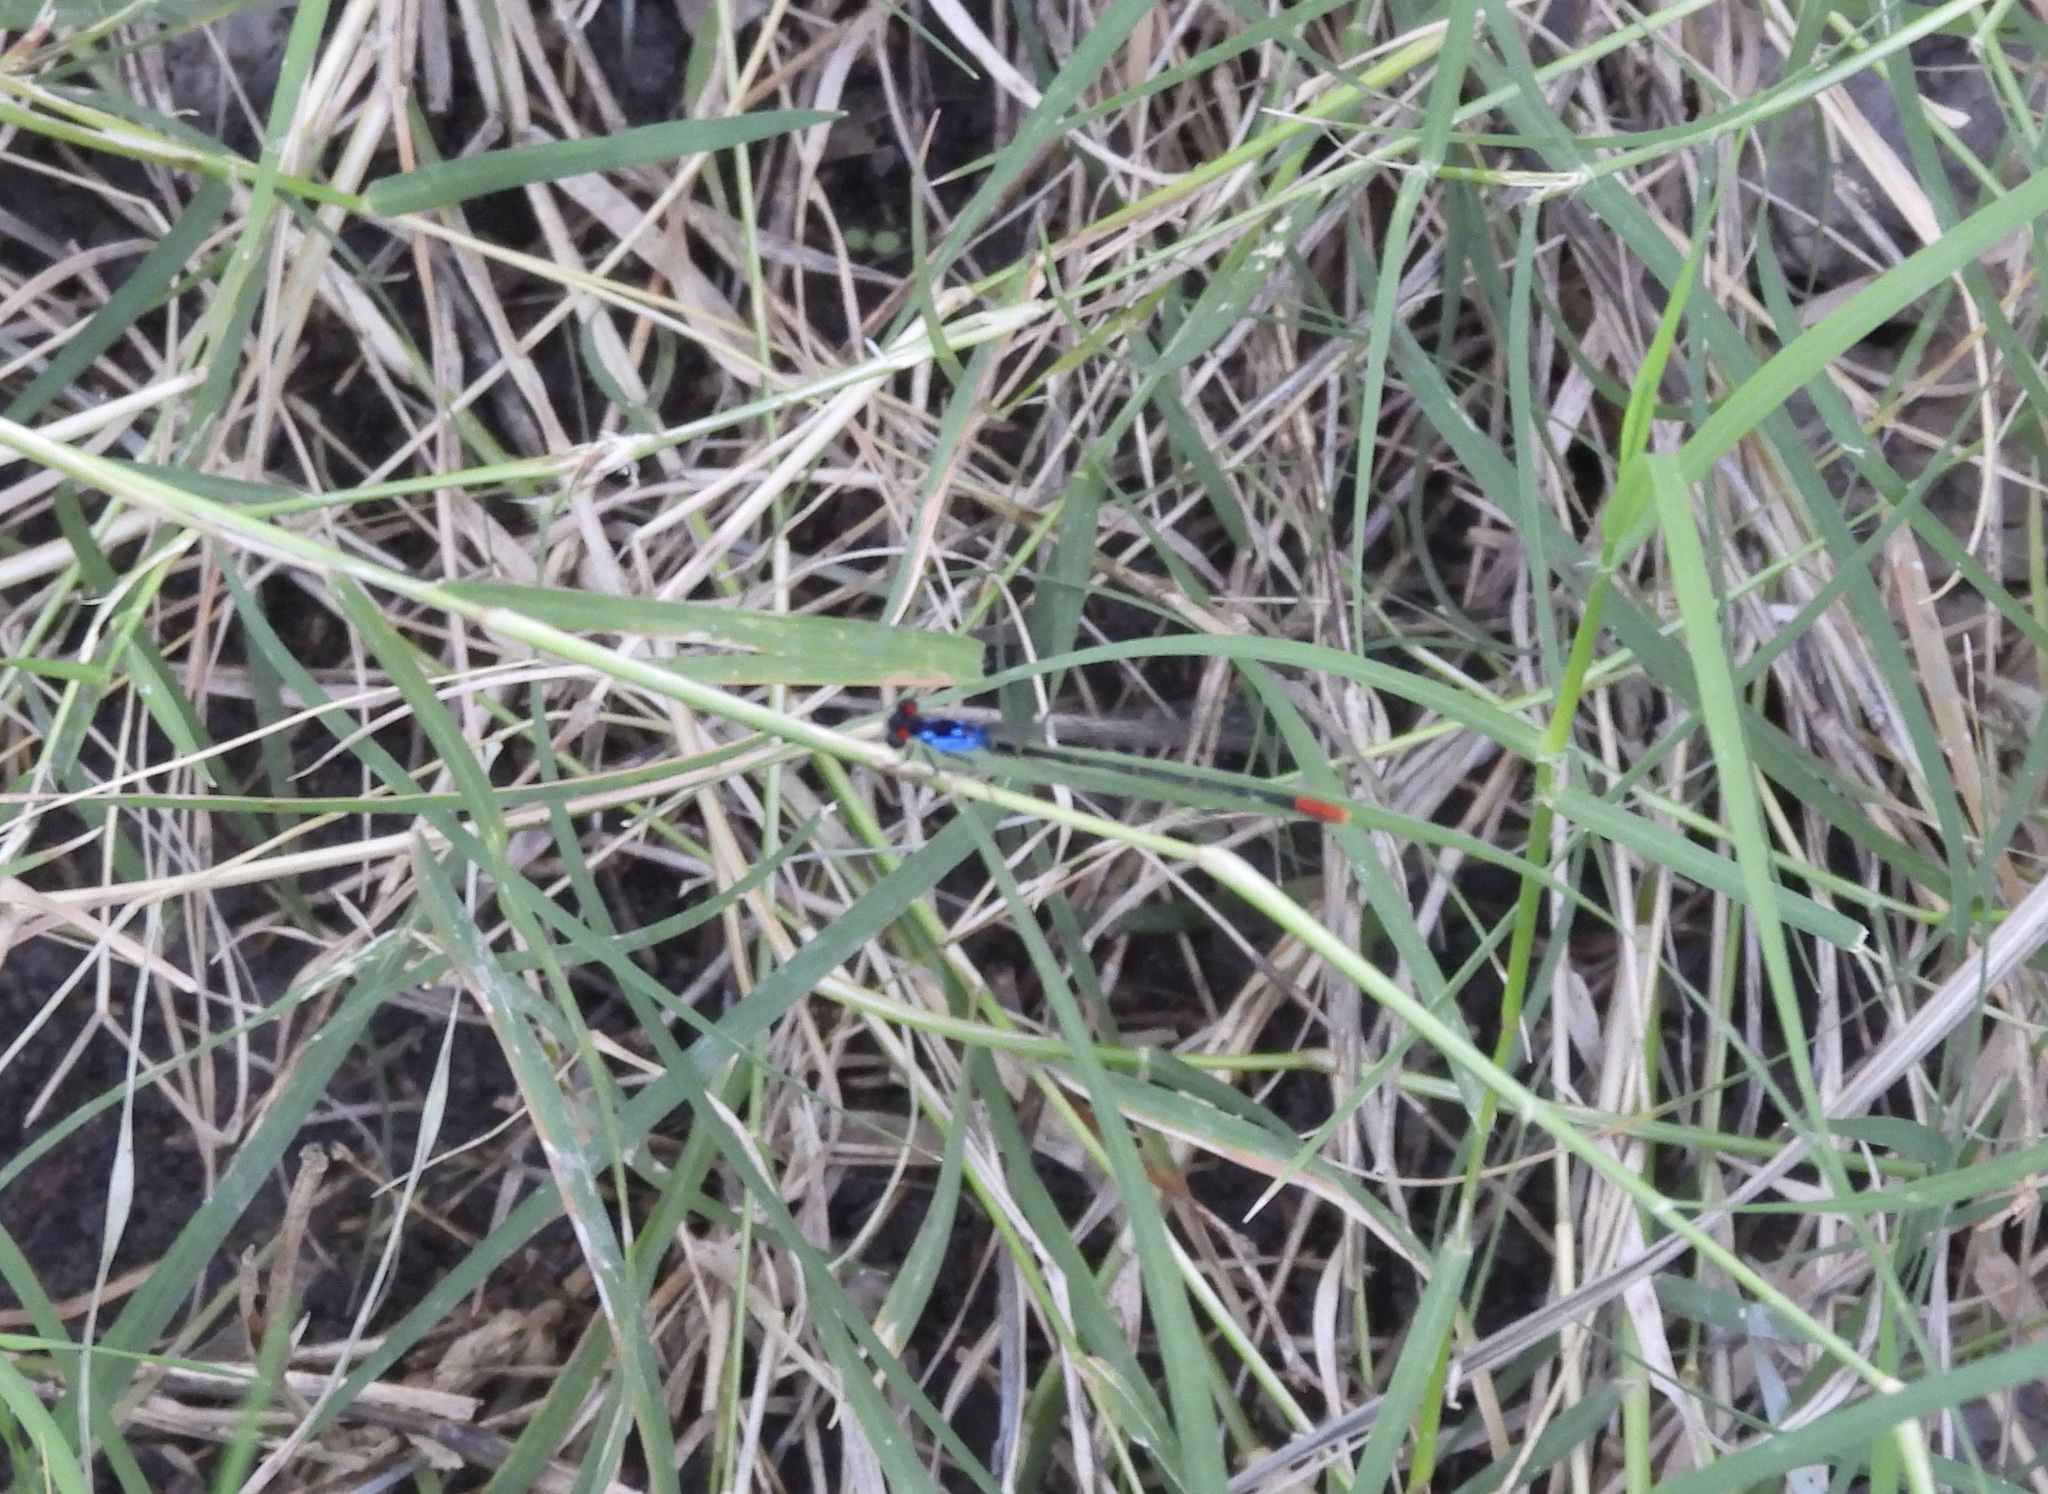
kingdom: Animalia
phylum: Arthropoda
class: Insecta
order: Odonata
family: Coenagrionidae
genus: Hesperagrion
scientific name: Hesperagrion heterodoxum
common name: Painted damsel
